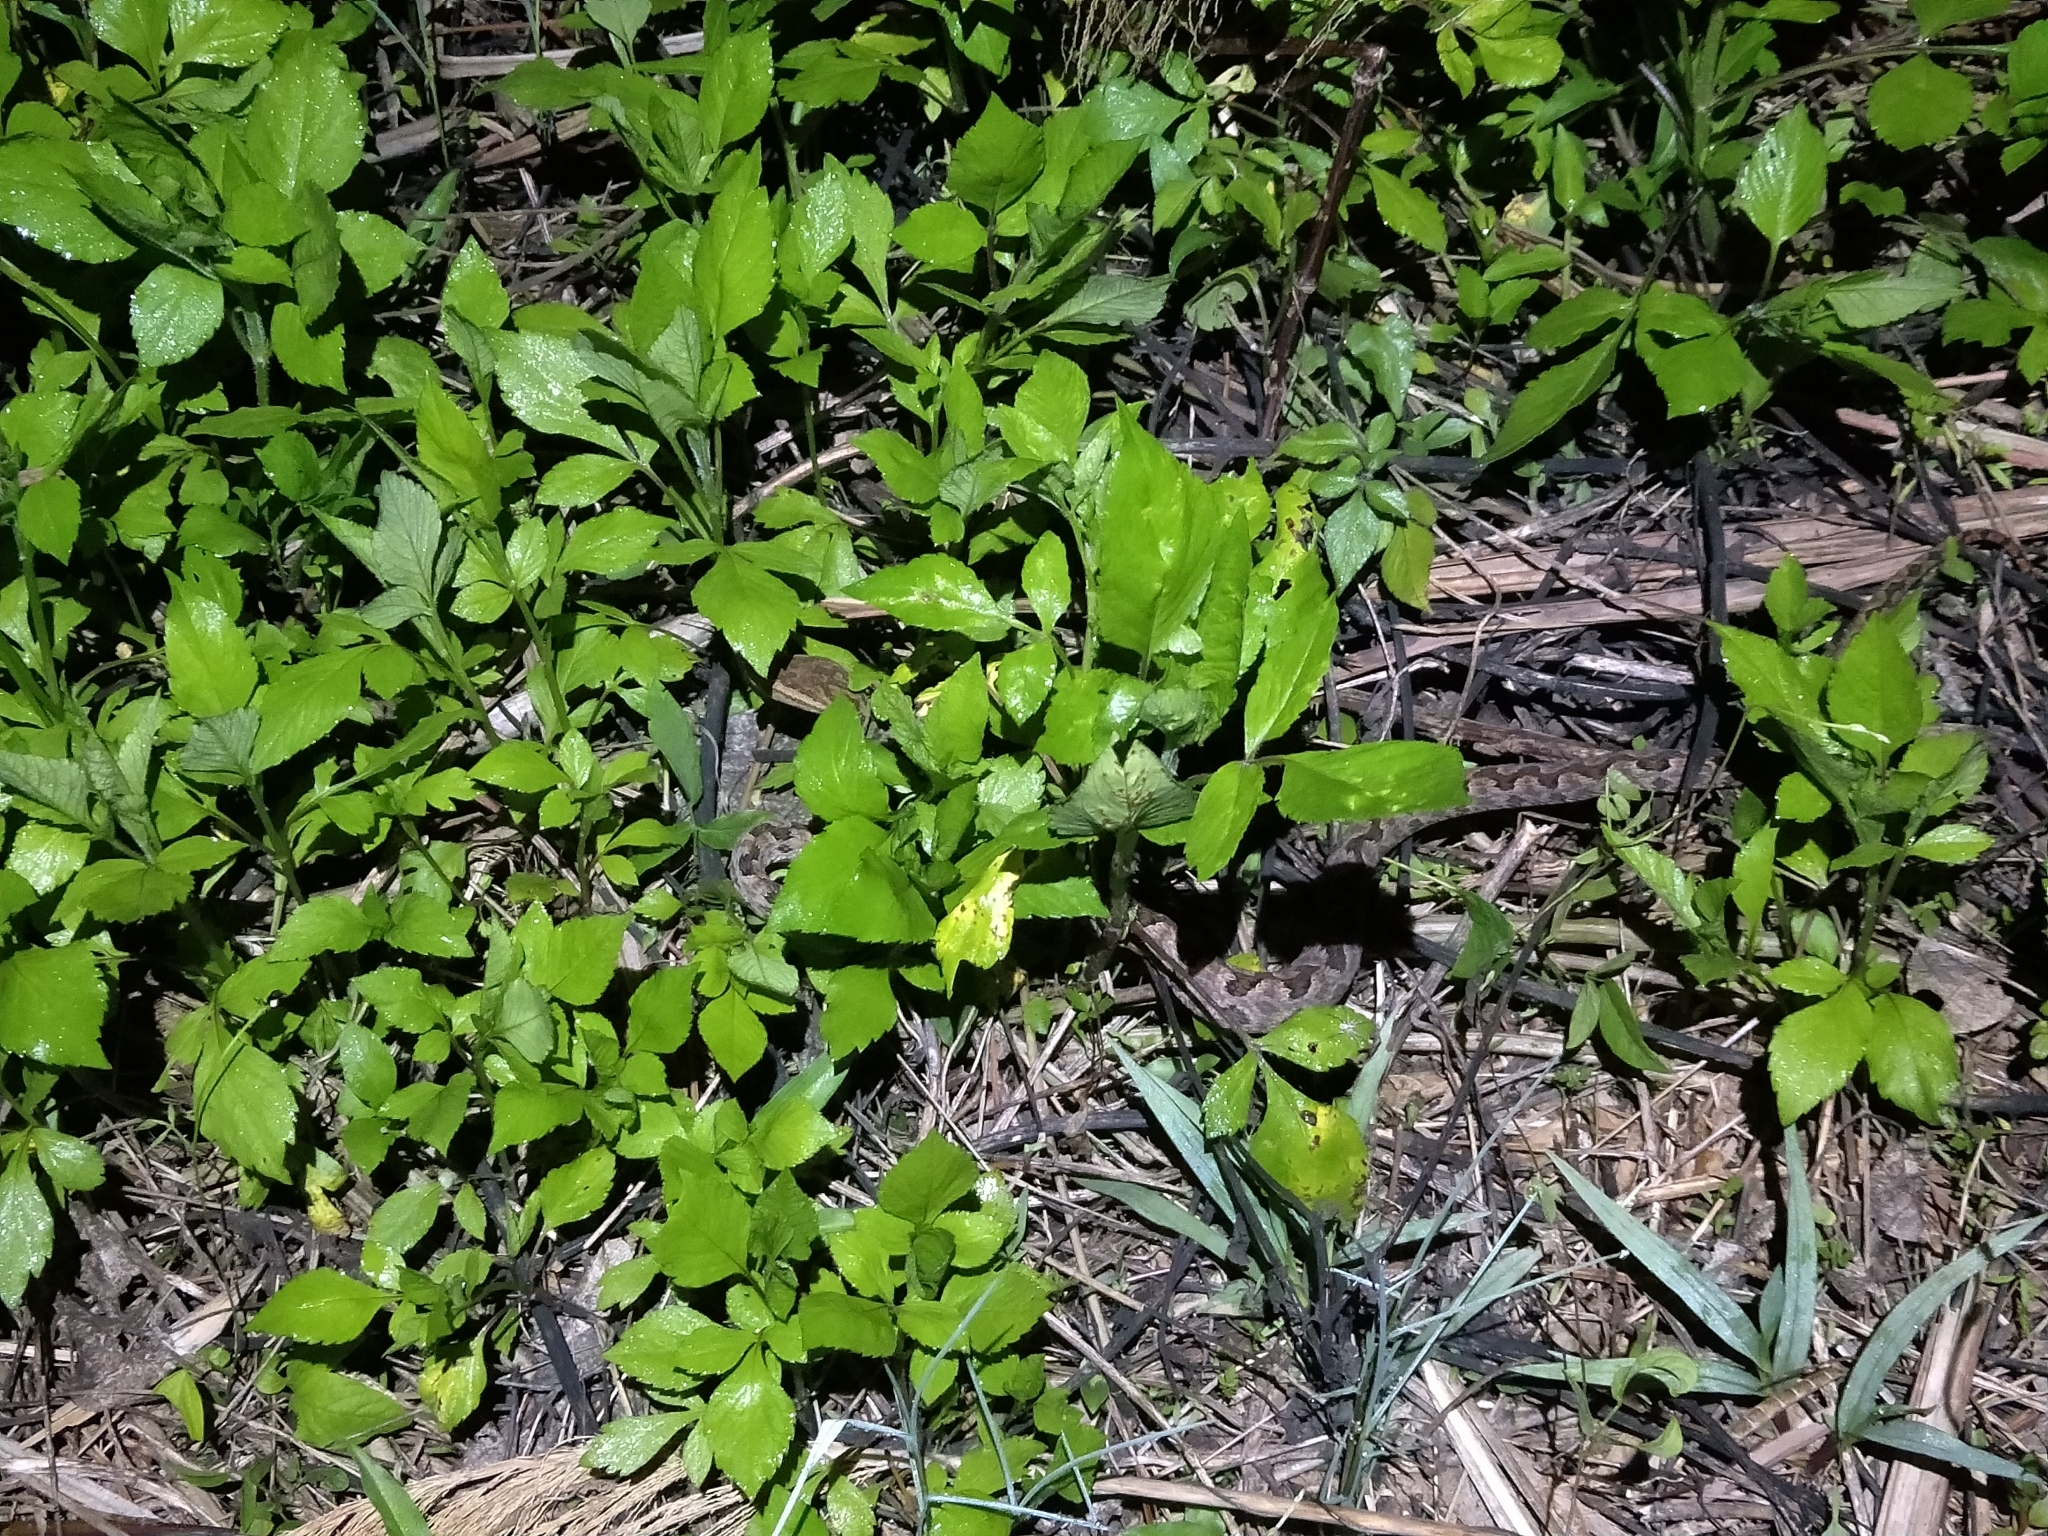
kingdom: Animalia
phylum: Chordata
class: Squamata
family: Viperidae
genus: Protobothrops
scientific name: Protobothrops mucrosquamatus
